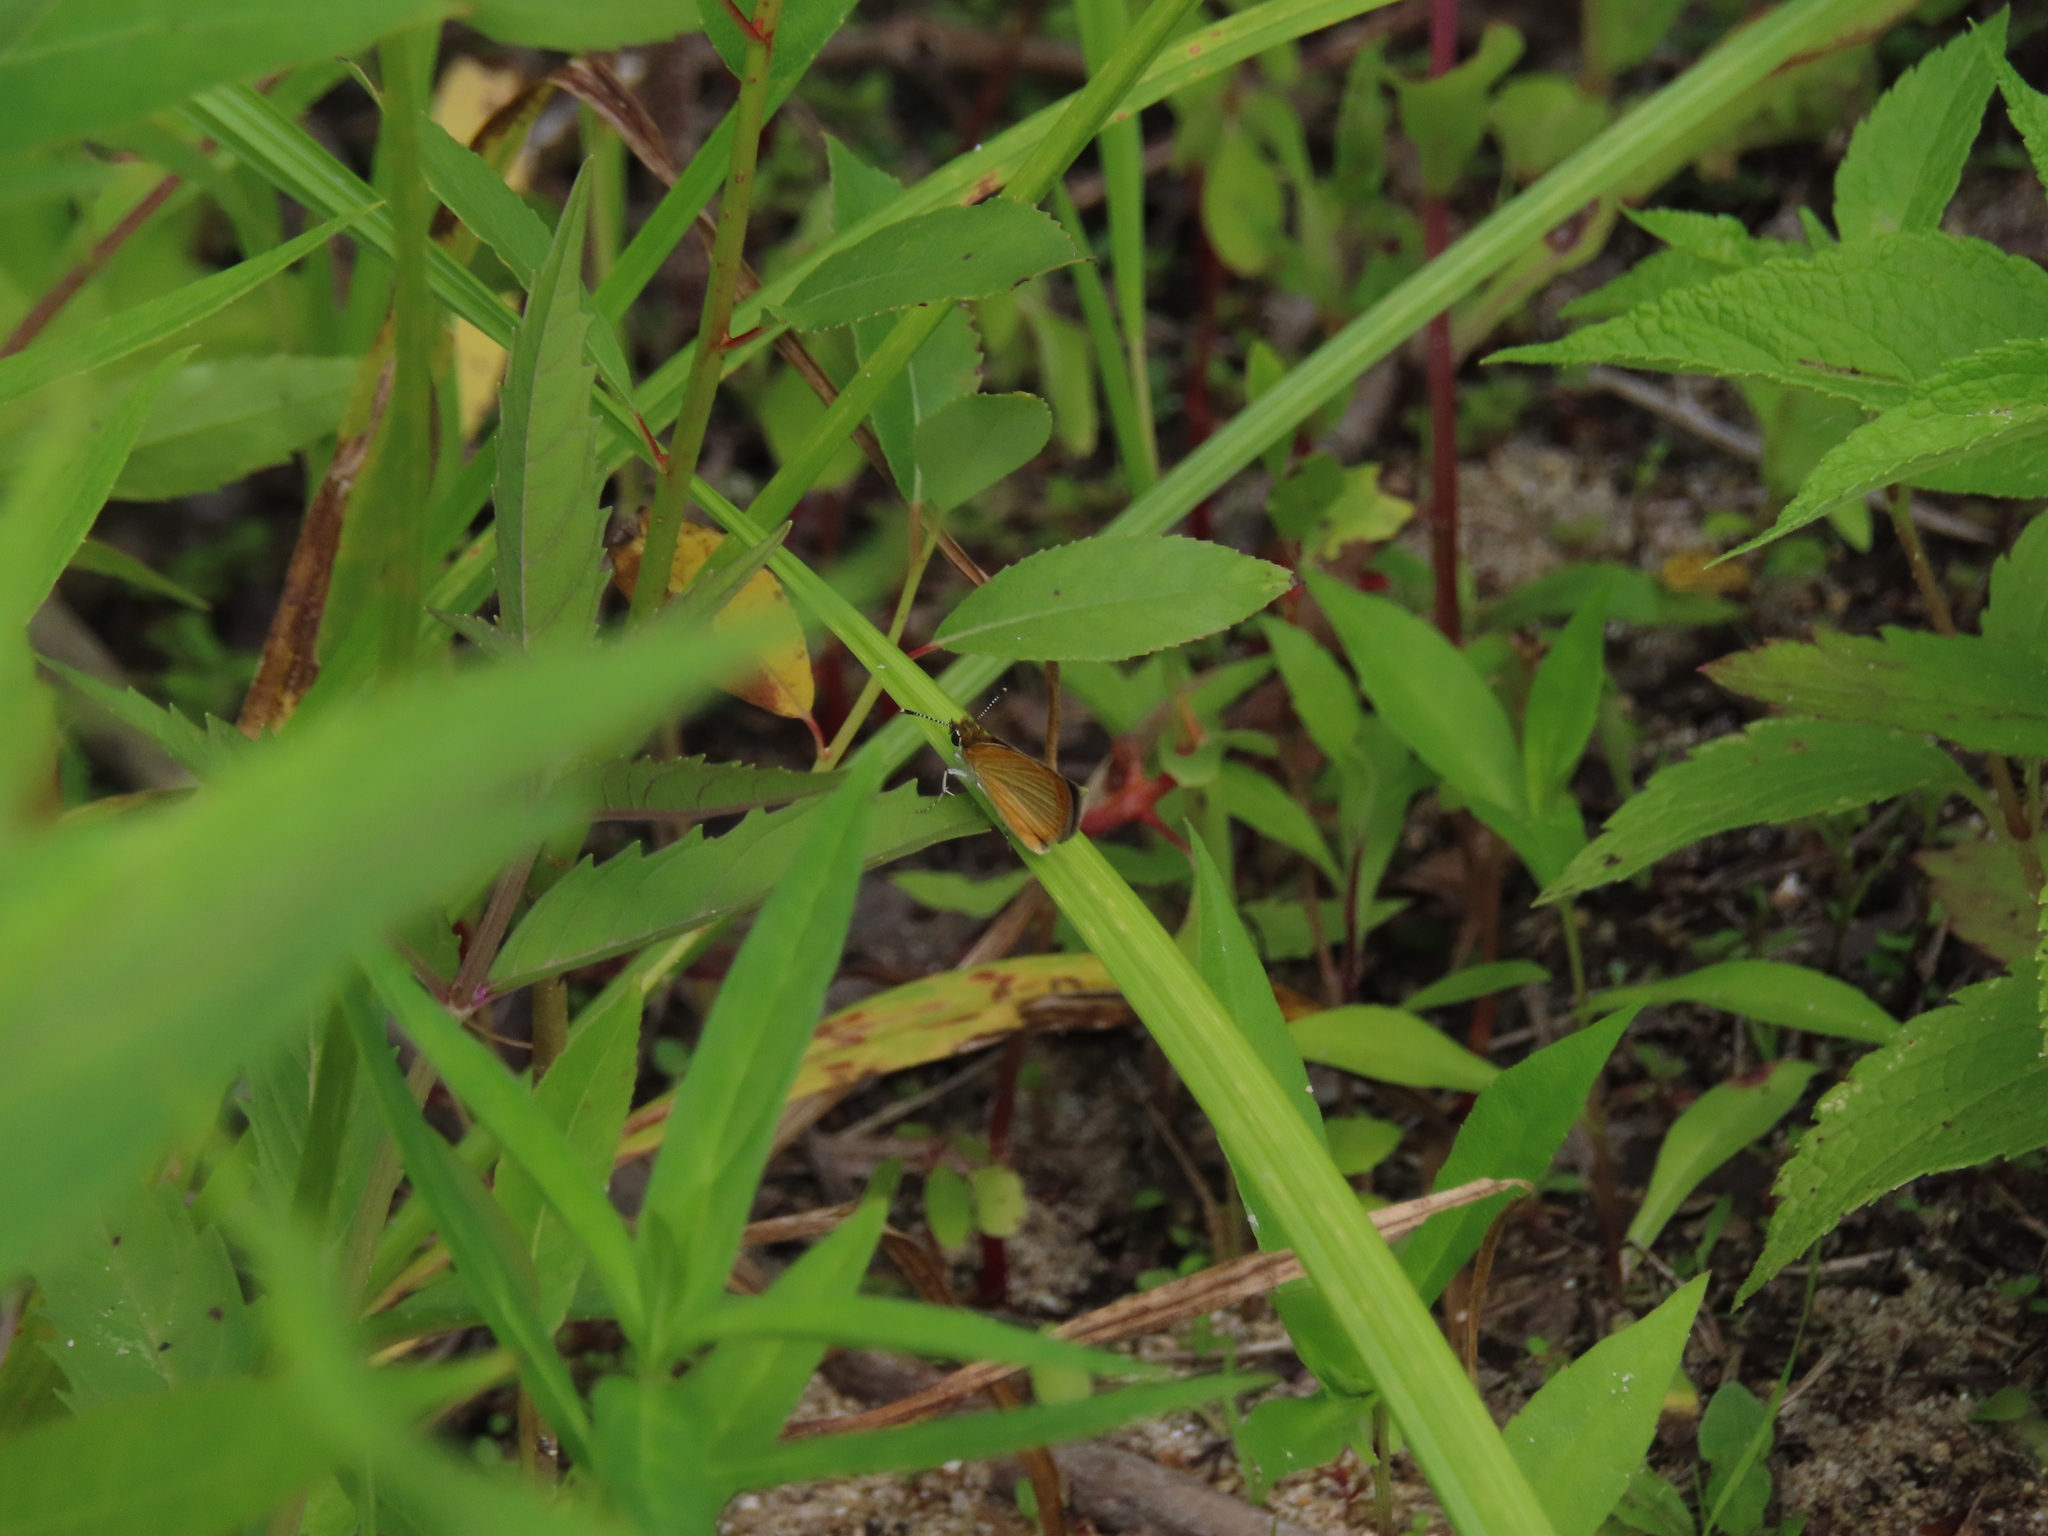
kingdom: Animalia
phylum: Arthropoda
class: Insecta
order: Lepidoptera
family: Hesperiidae
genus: Ancyloxypha
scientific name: Ancyloxypha numitor
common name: Least skipper
